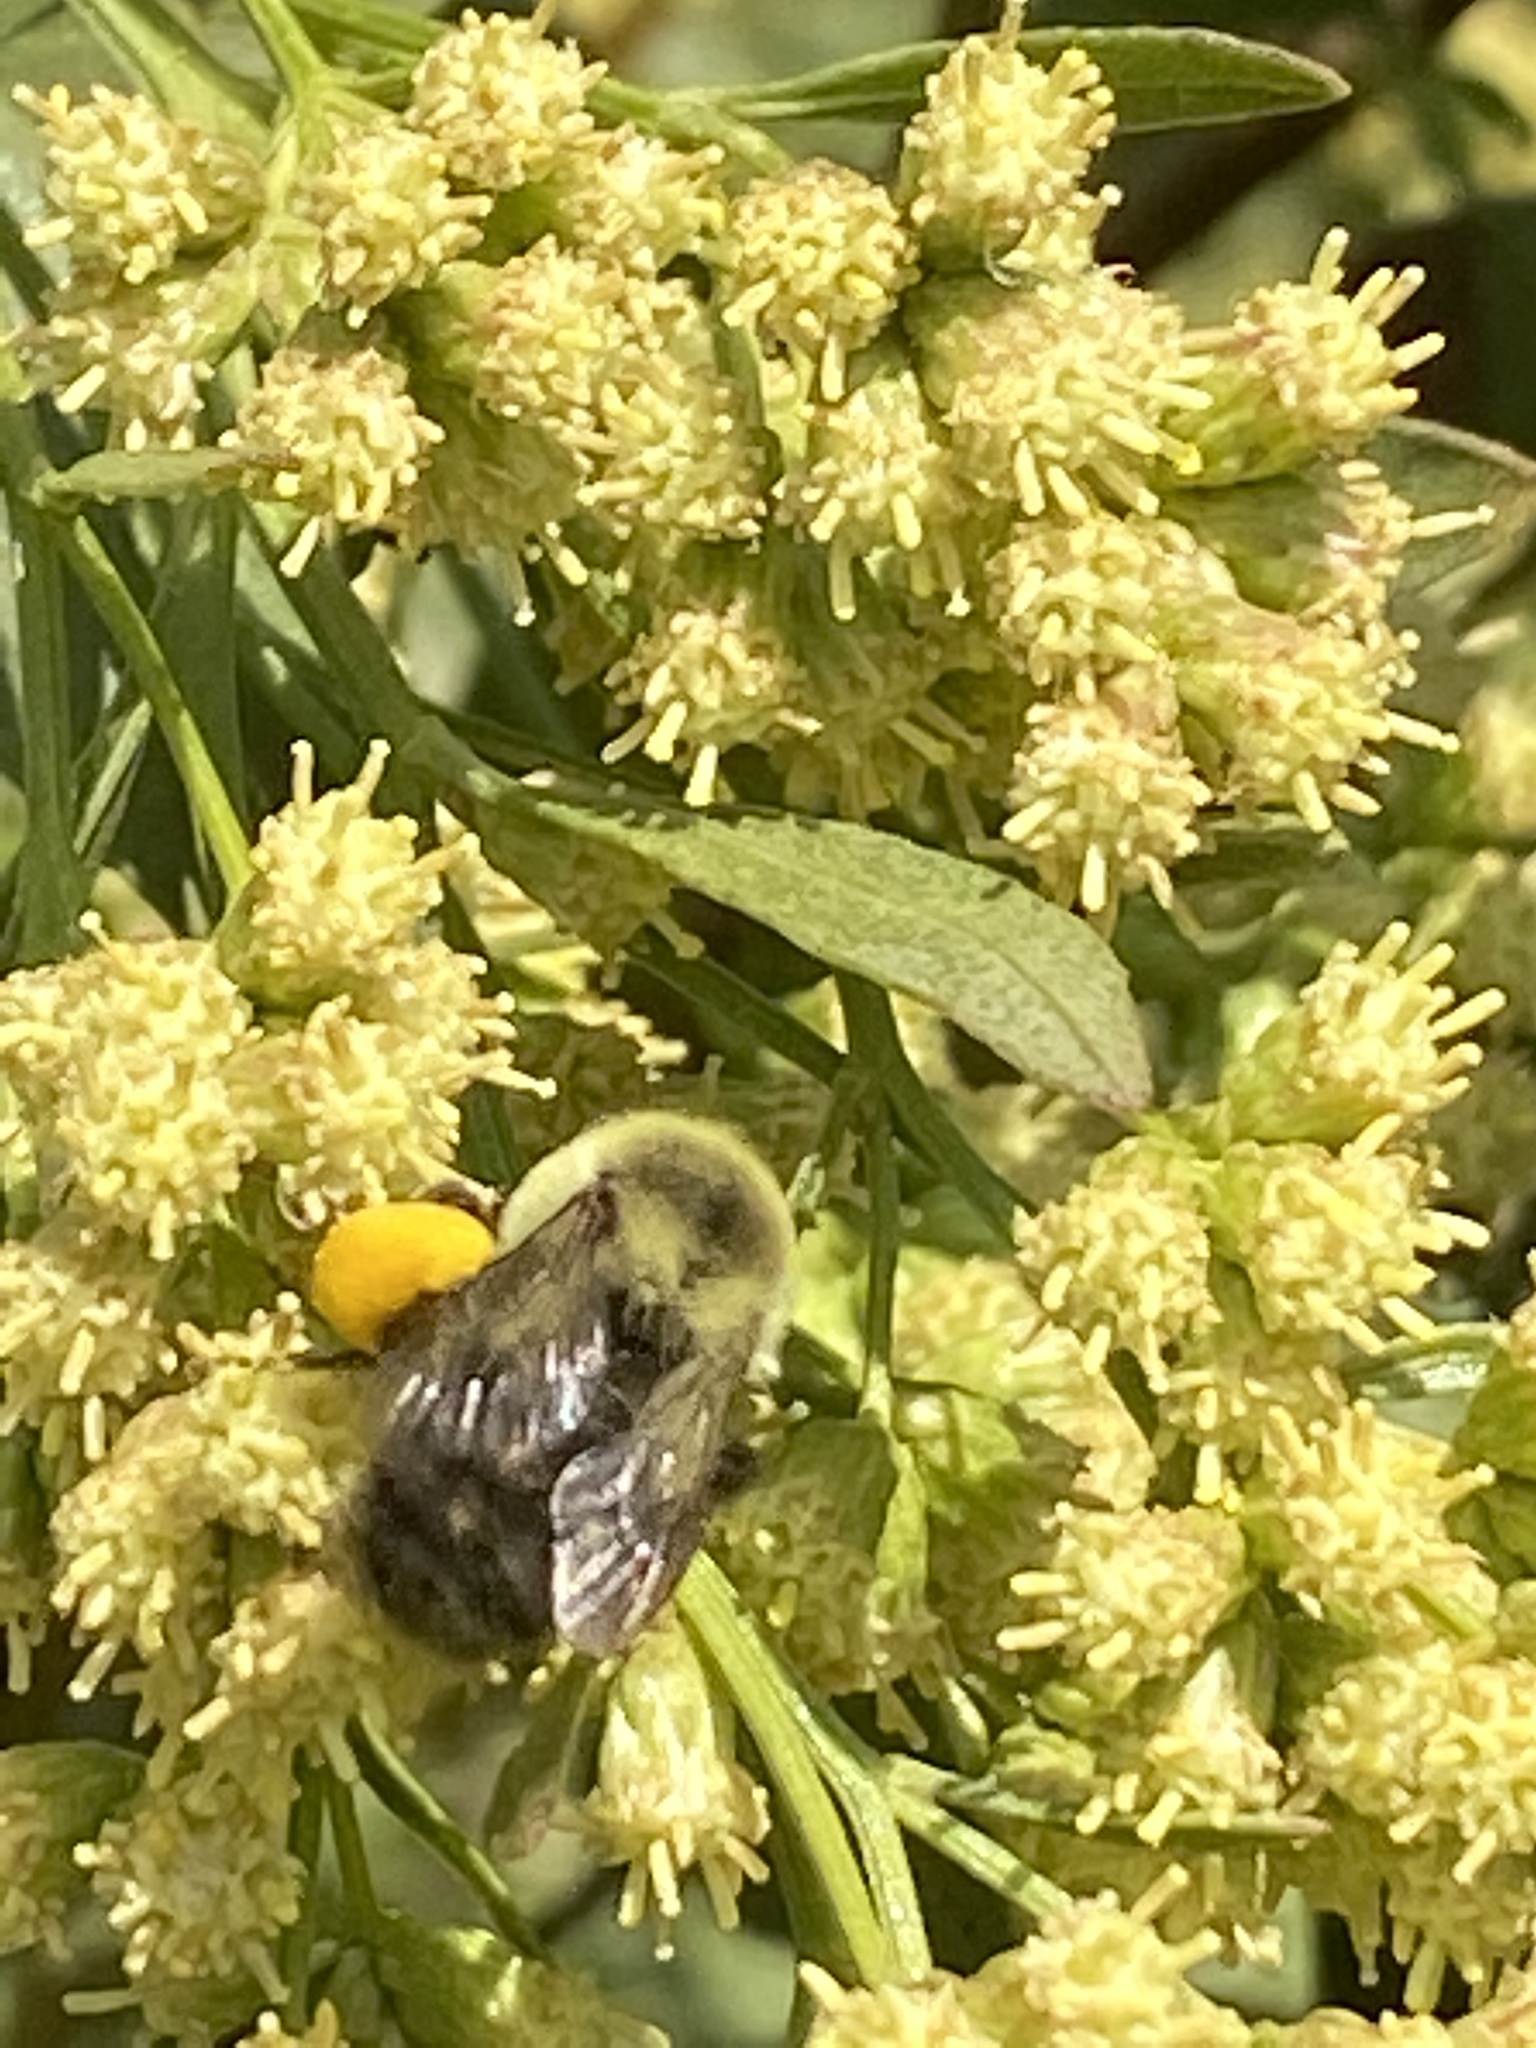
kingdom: Animalia
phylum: Arthropoda
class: Insecta
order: Hymenoptera
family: Apidae
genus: Bombus
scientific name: Bombus impatiens
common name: Common eastern bumble bee
